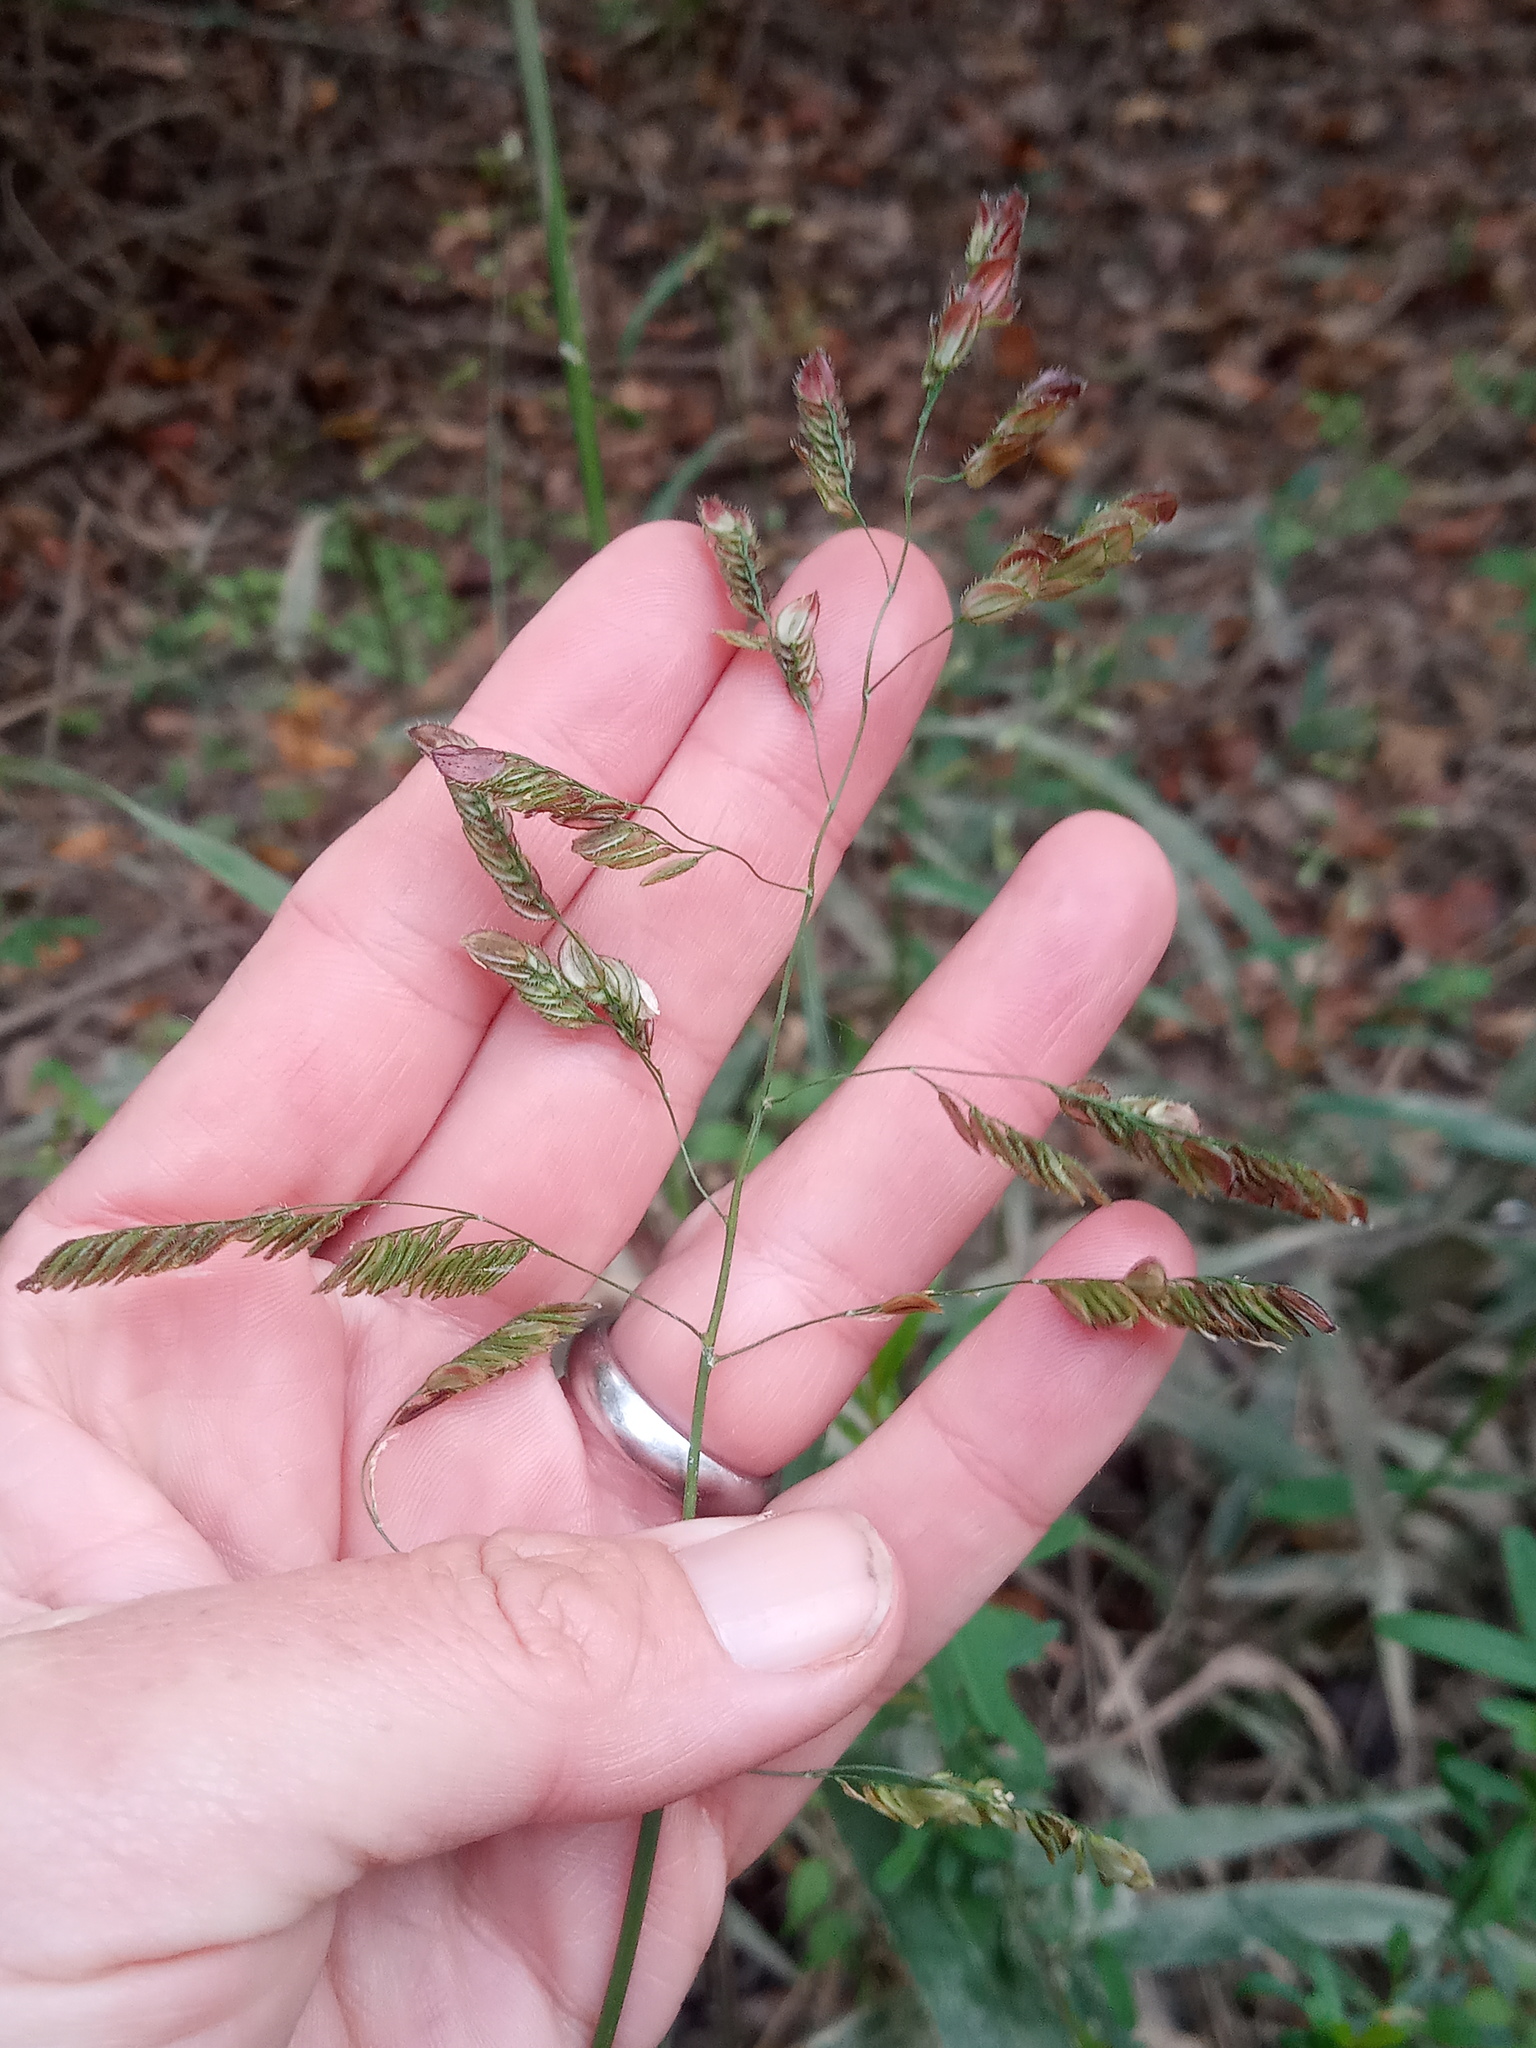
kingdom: Plantae
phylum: Tracheophyta
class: Liliopsida
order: Poales
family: Poaceae
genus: Leersia
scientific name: Leersia lenticularis
